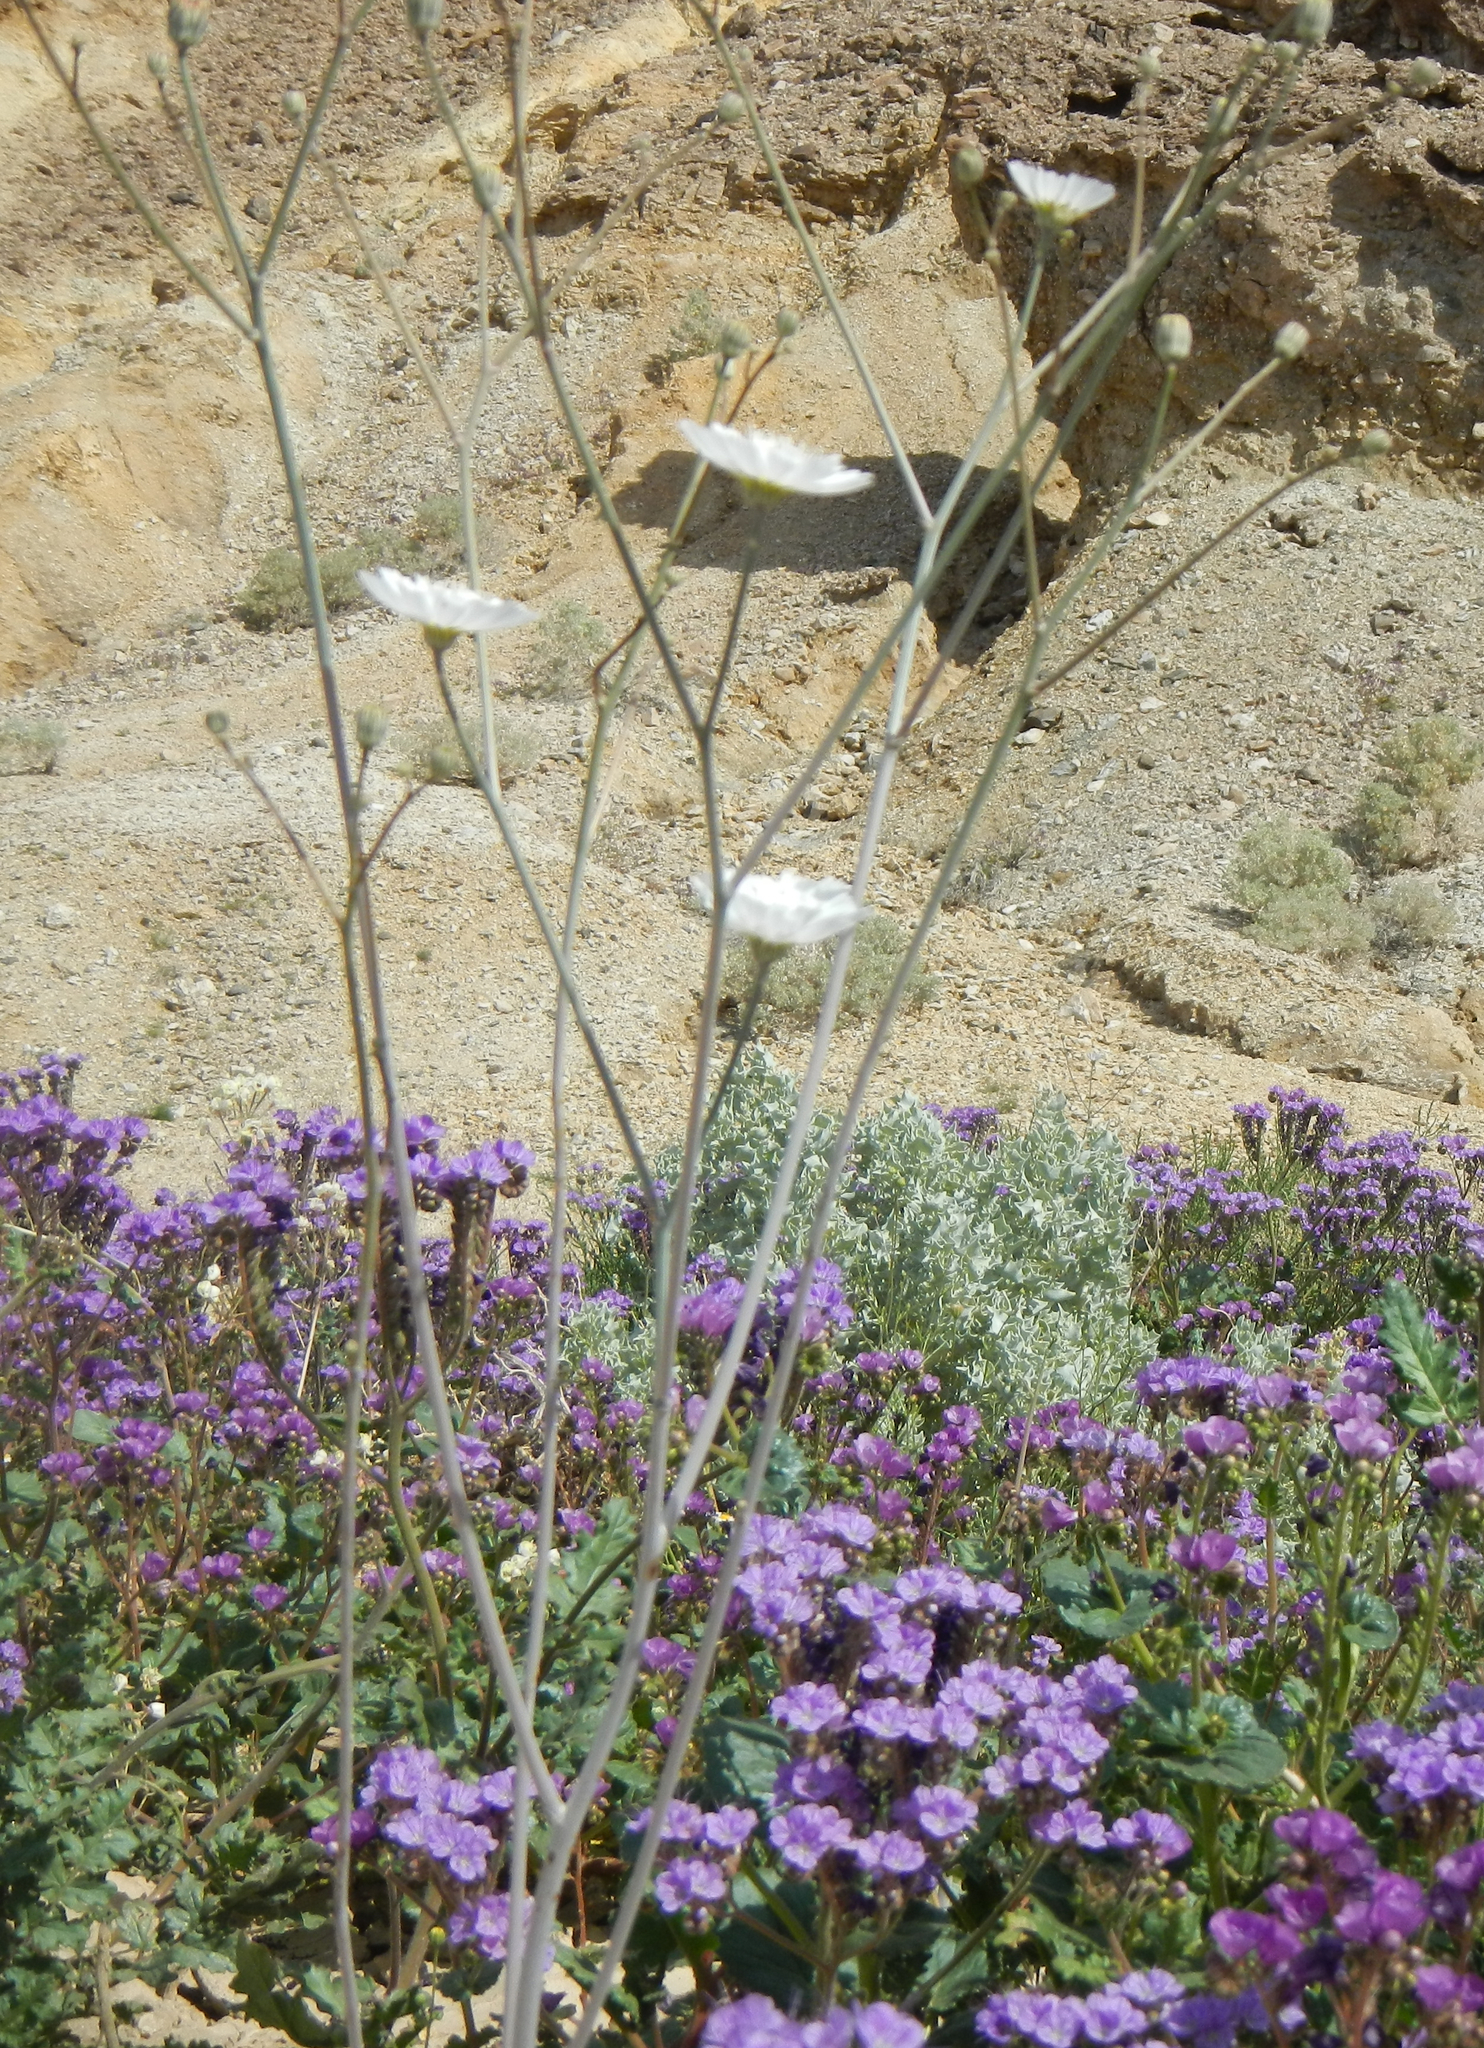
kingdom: Plantae
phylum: Tracheophyta
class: Magnoliopsida
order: Asterales
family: Asteraceae
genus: Atrichoseris
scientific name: Atrichoseris platyphylla
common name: Tobaccoweed
